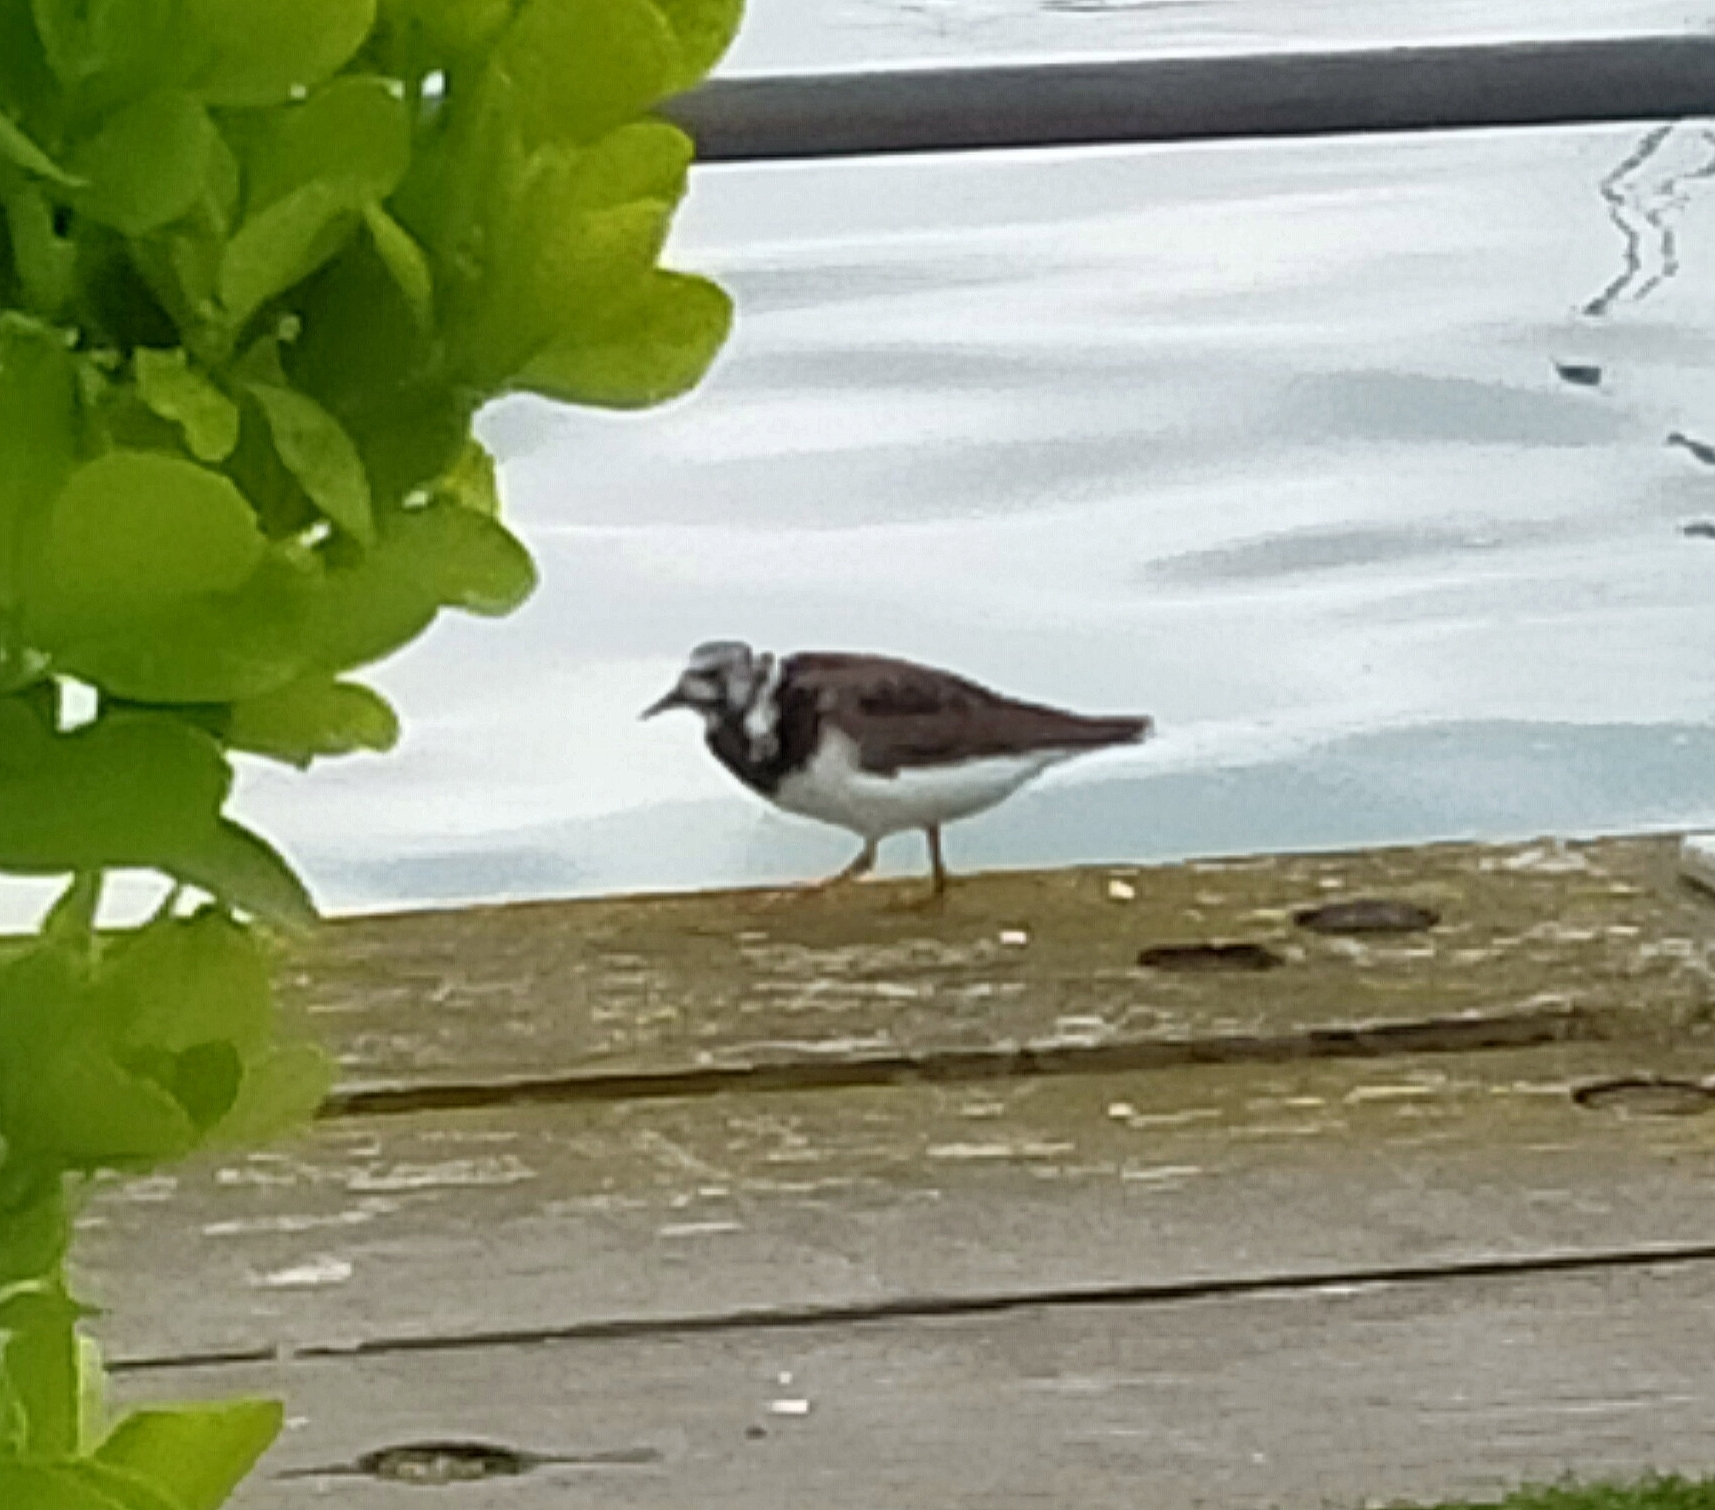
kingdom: Animalia
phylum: Chordata
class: Aves
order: Charadriiformes
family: Scolopacidae
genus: Arenaria
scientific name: Arenaria interpres
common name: Ruddy turnstone
